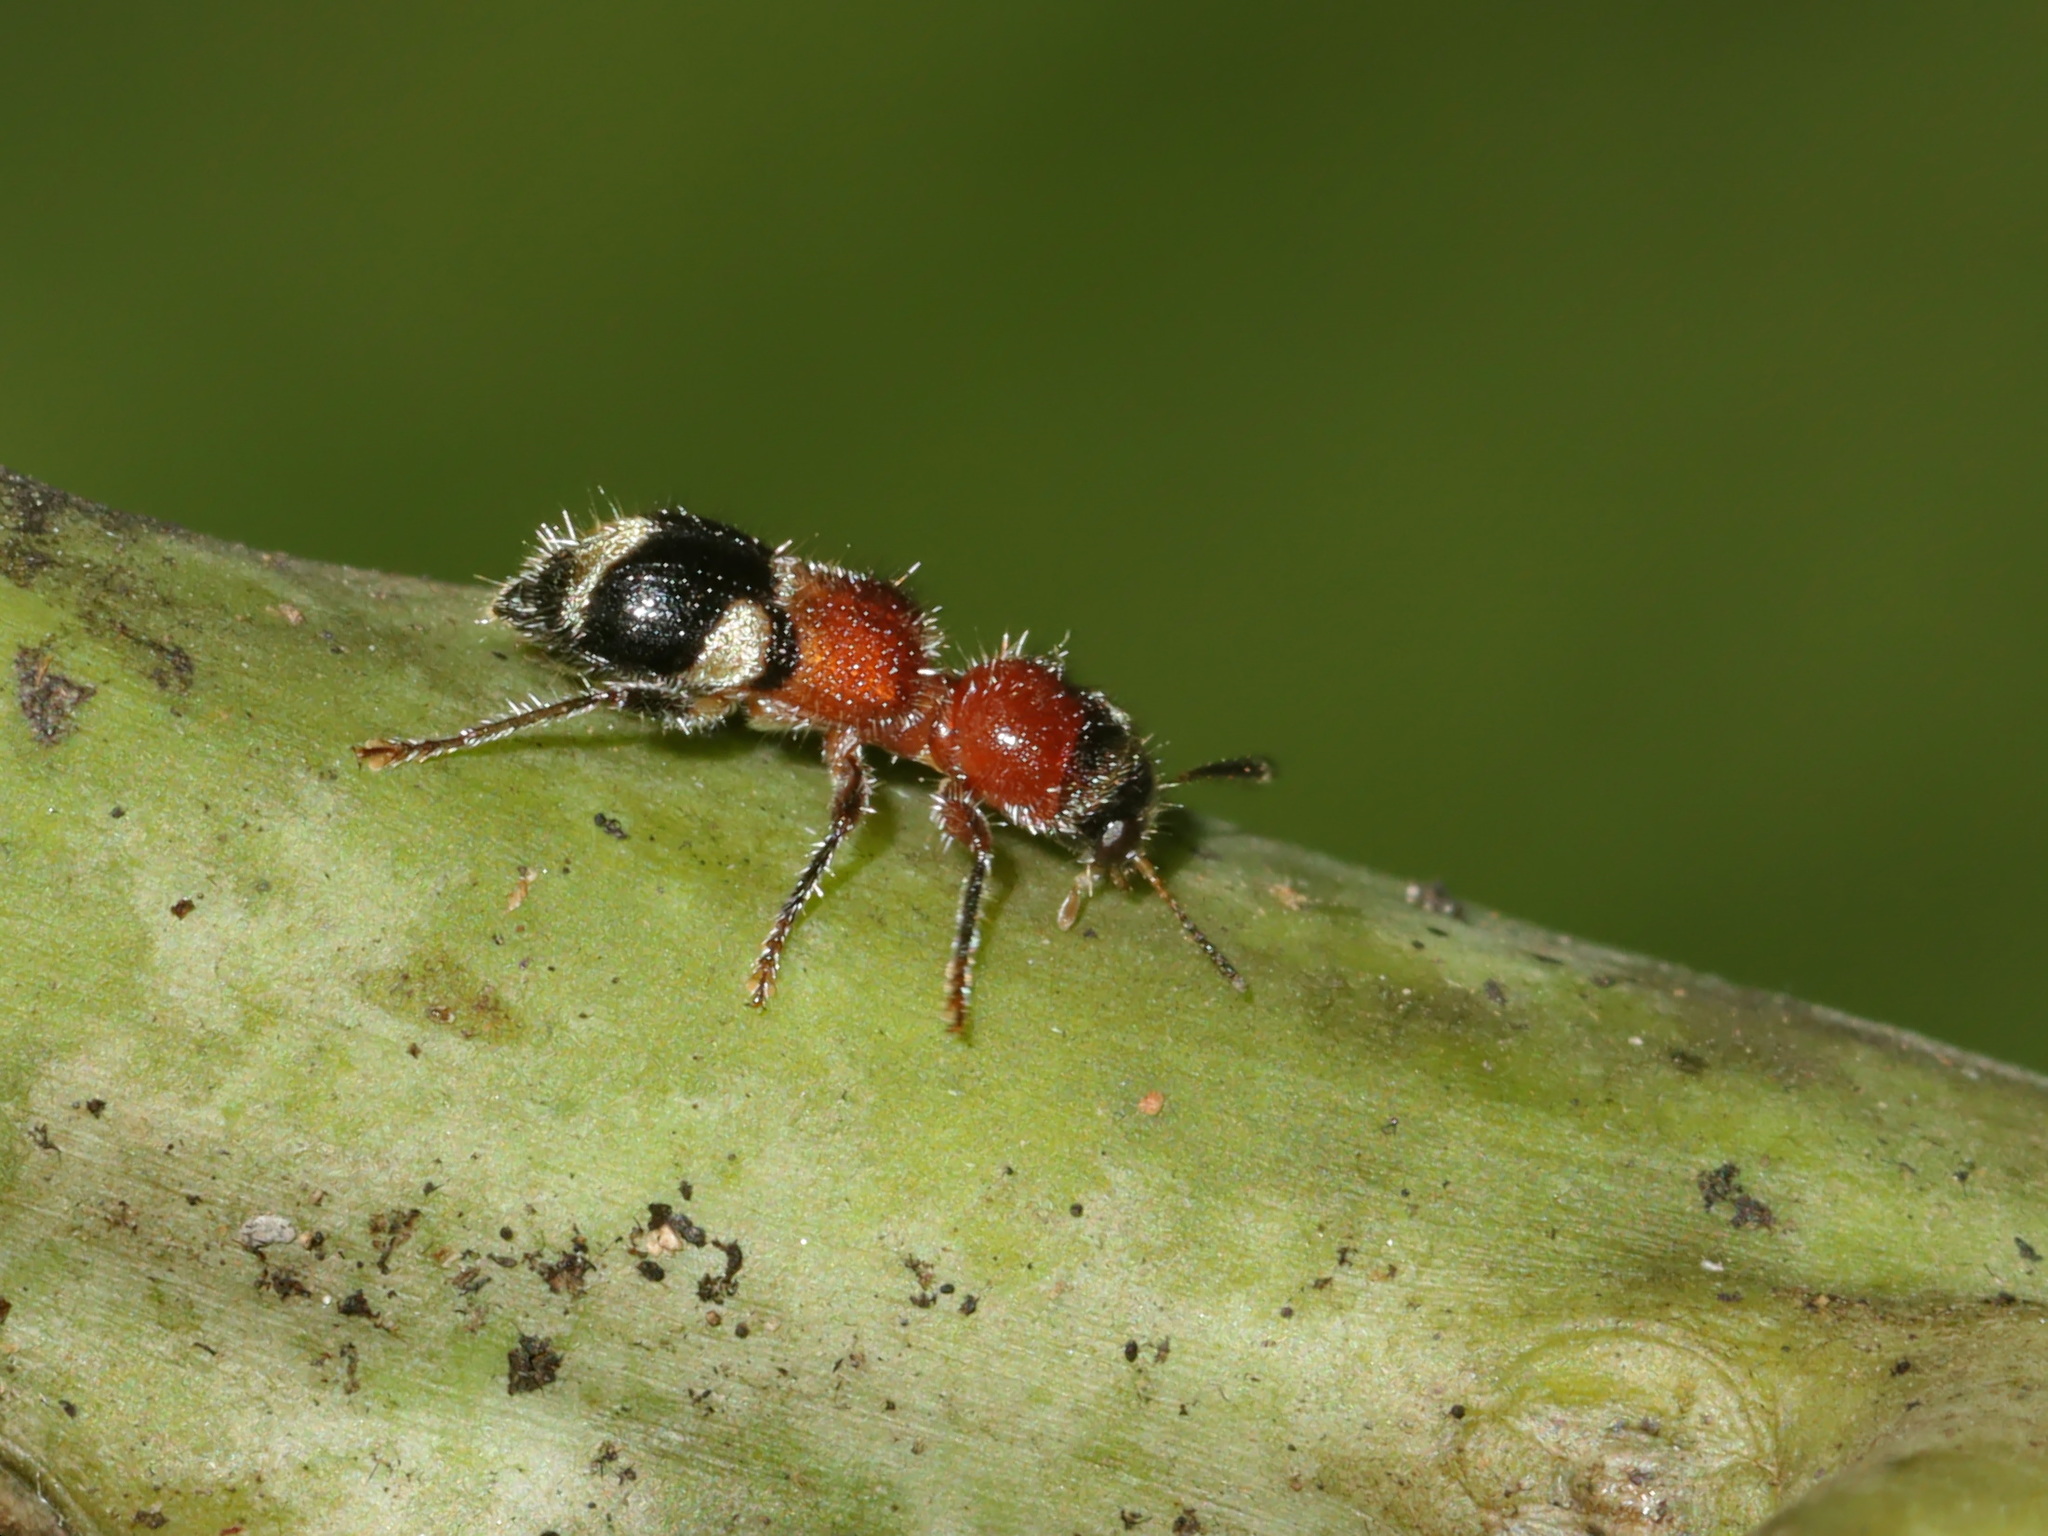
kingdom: Animalia
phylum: Arthropoda
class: Insecta
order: Coleoptera
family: Cleridae
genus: Tillicera
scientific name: Tillicera
